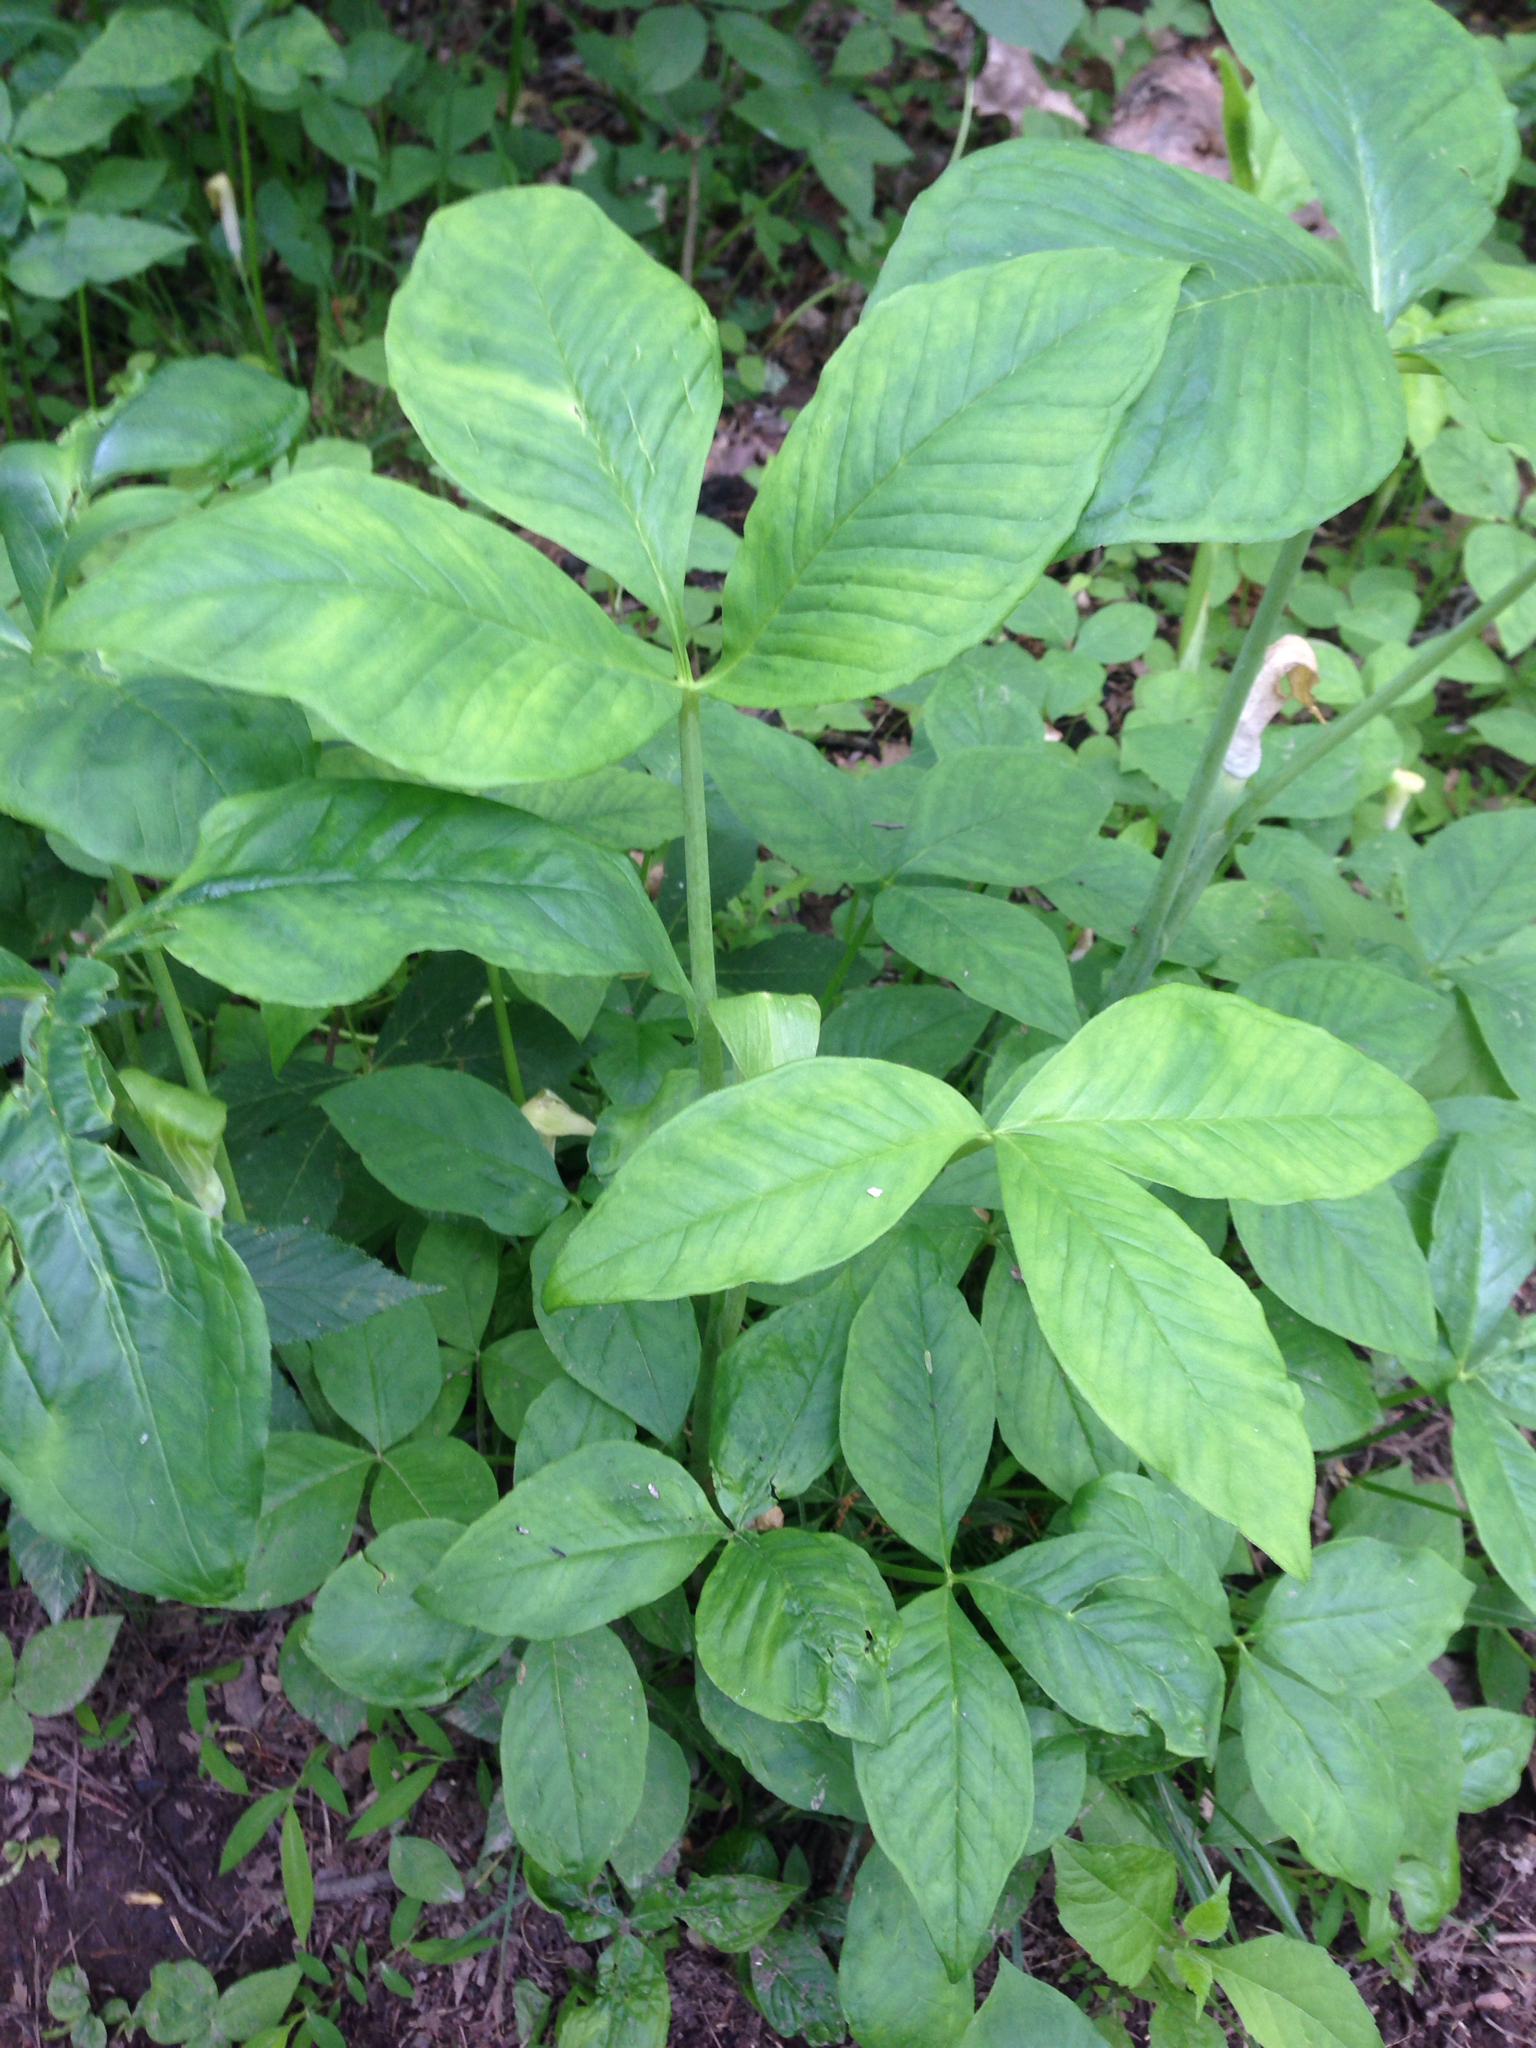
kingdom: Plantae
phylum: Tracheophyta
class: Liliopsida
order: Alismatales
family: Araceae
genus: Arisaema
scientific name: Arisaema triphyllum
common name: Jack-in-the-pulpit
